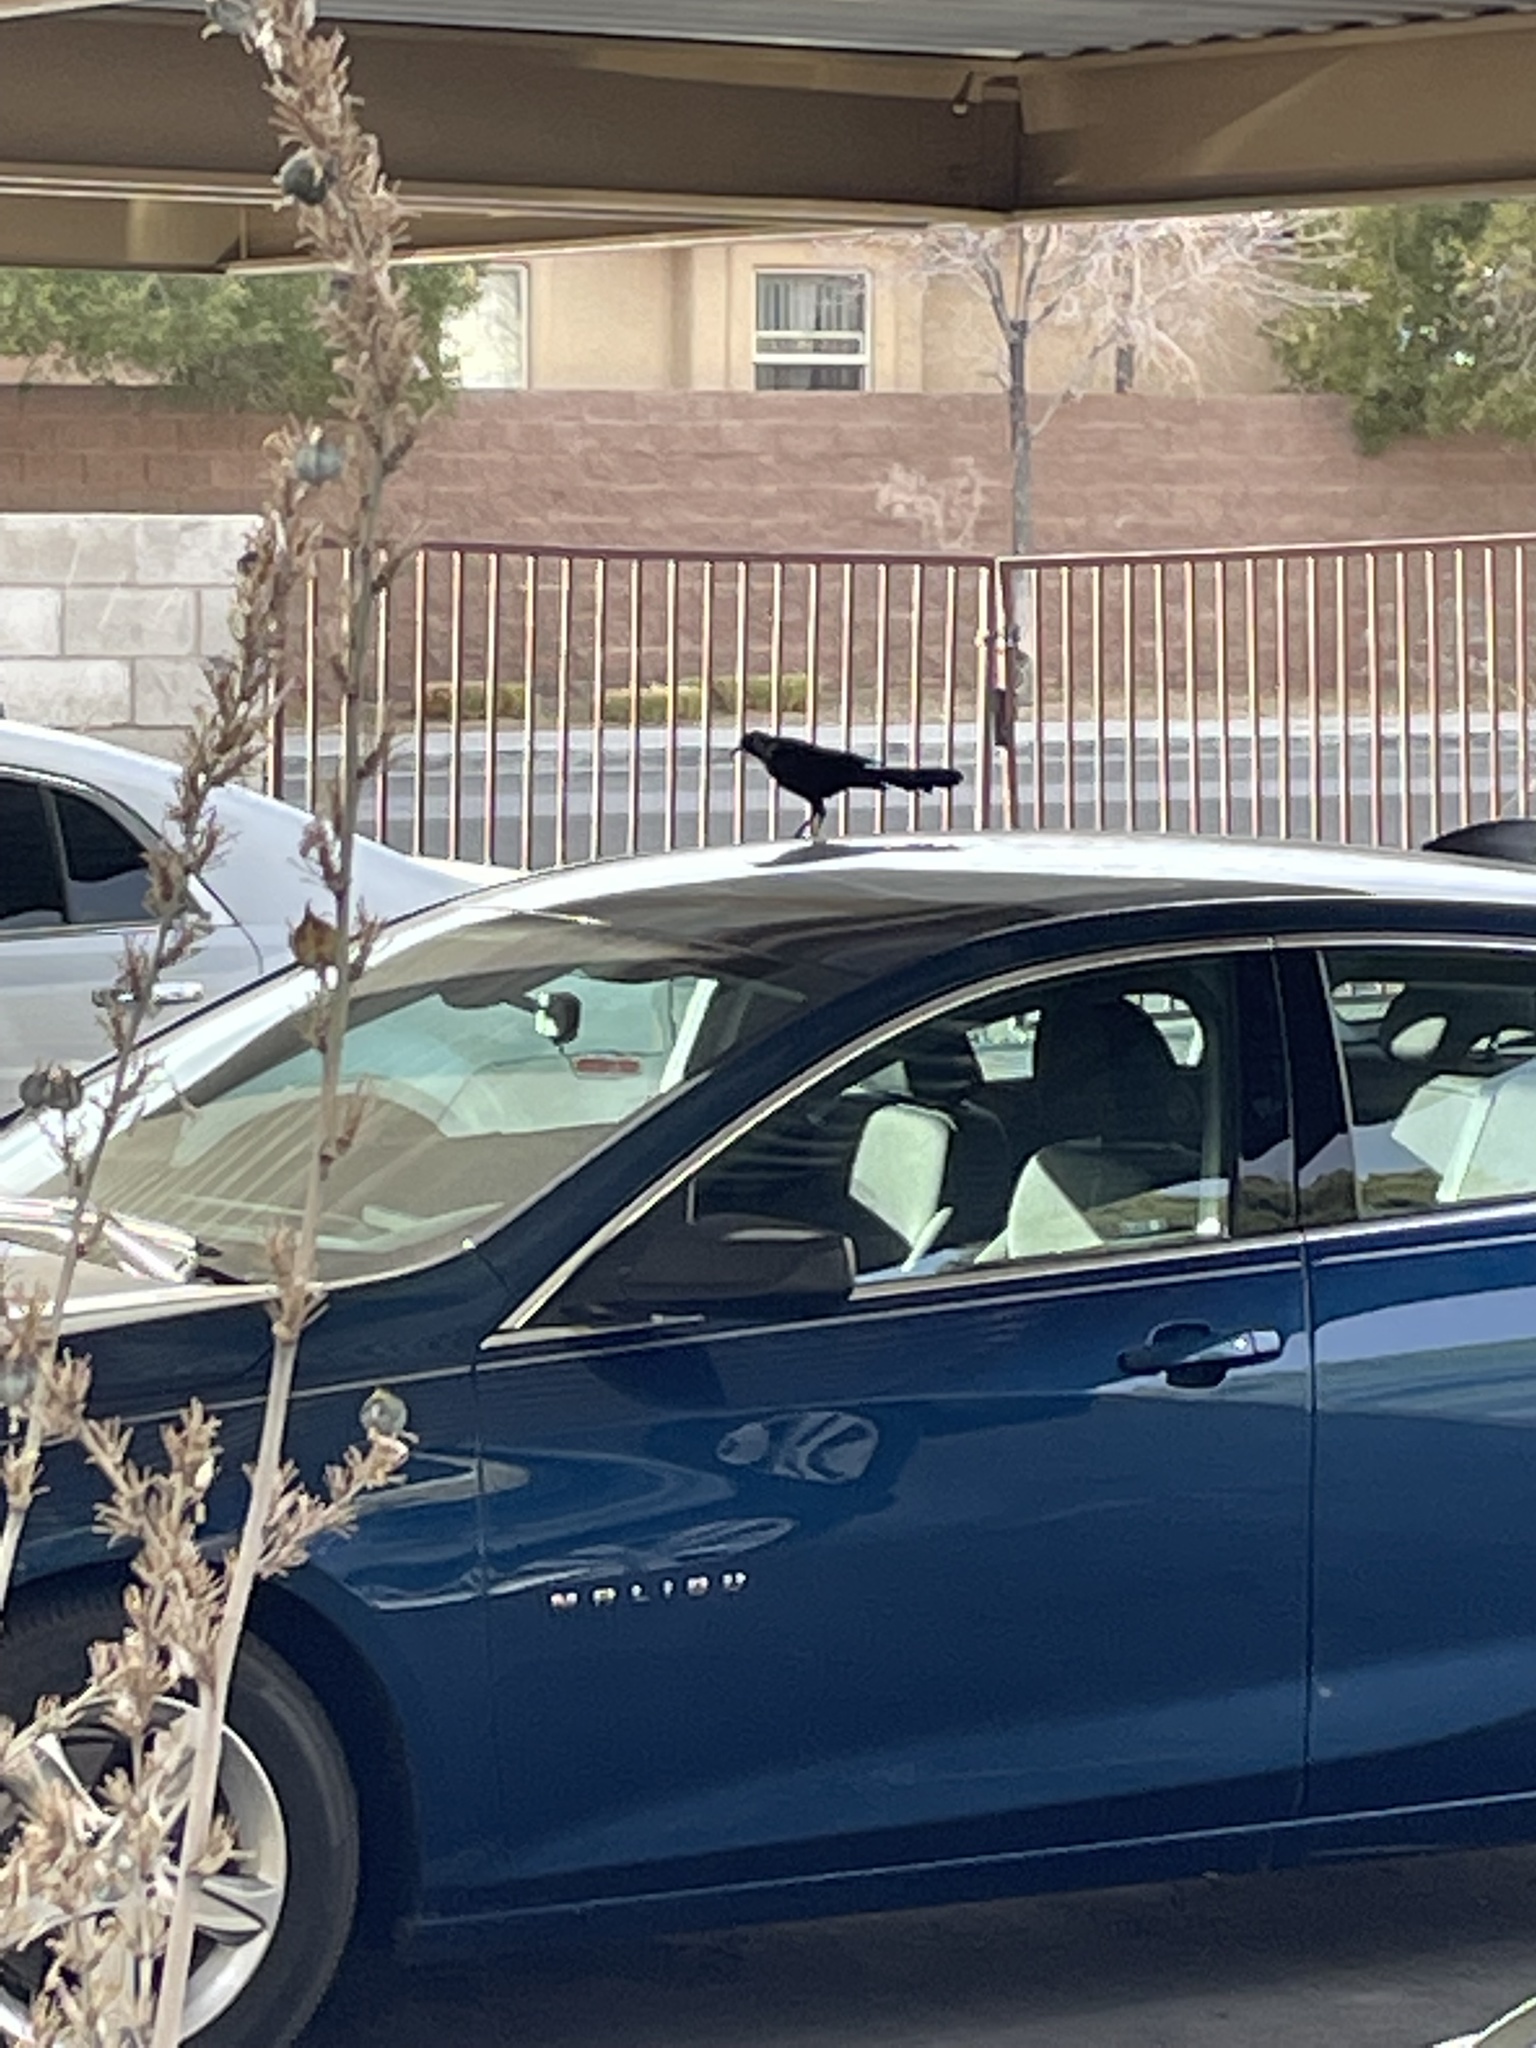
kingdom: Animalia
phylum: Chordata
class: Aves
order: Passeriformes
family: Icteridae
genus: Quiscalus
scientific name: Quiscalus mexicanus
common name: Great-tailed grackle
